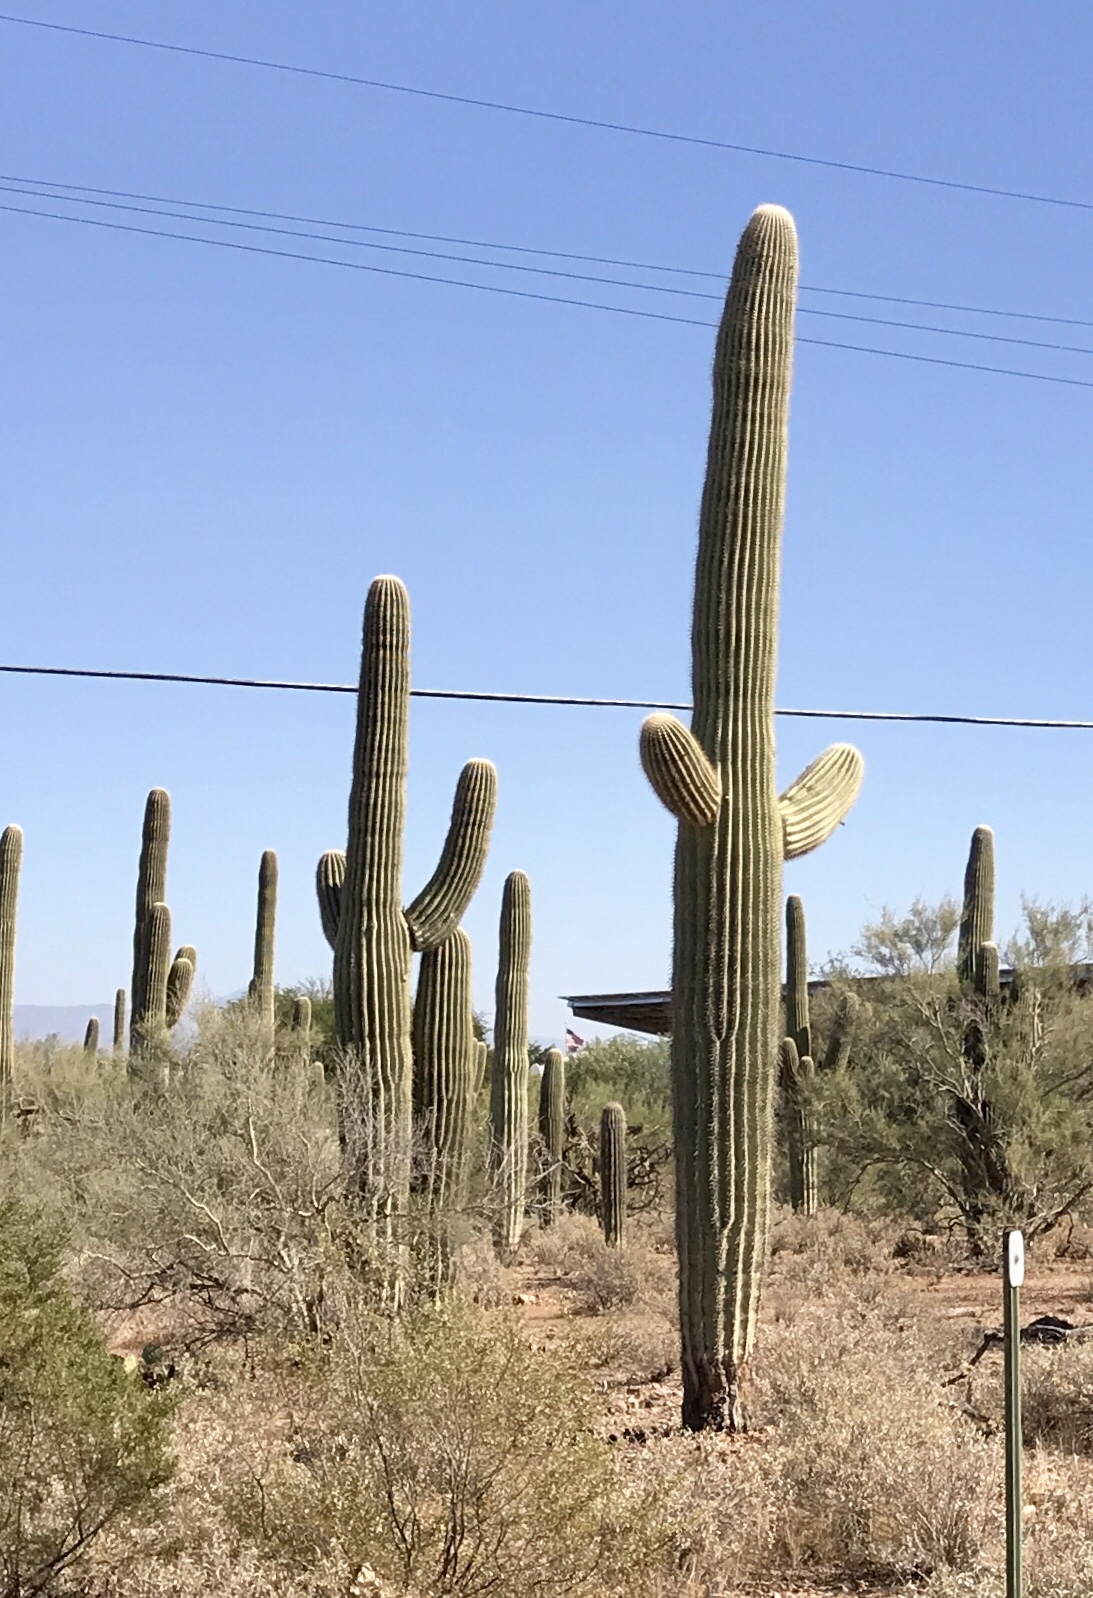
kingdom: Plantae
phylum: Tracheophyta
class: Magnoliopsida
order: Caryophyllales
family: Cactaceae
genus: Carnegiea
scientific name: Carnegiea gigantea
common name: Saguaro
